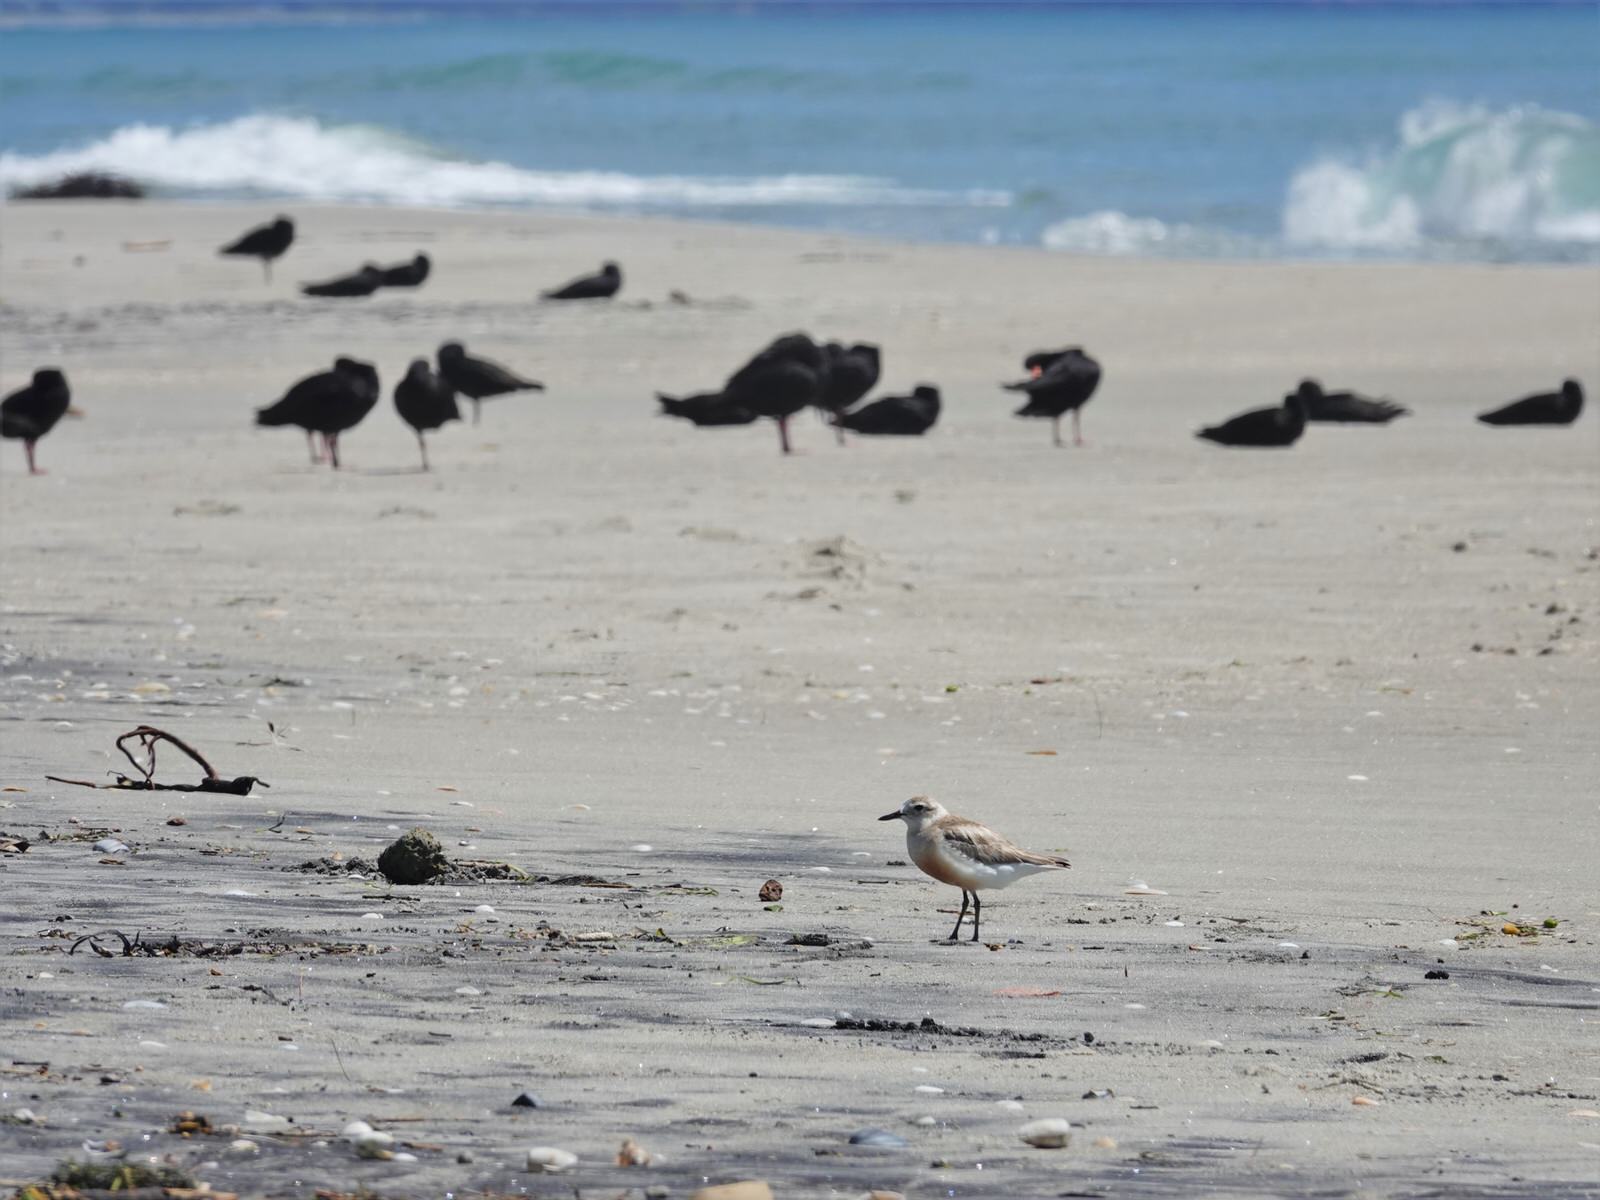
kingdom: Animalia
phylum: Chordata
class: Aves
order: Charadriiformes
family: Charadriidae
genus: Anarhynchus
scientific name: Anarhynchus
